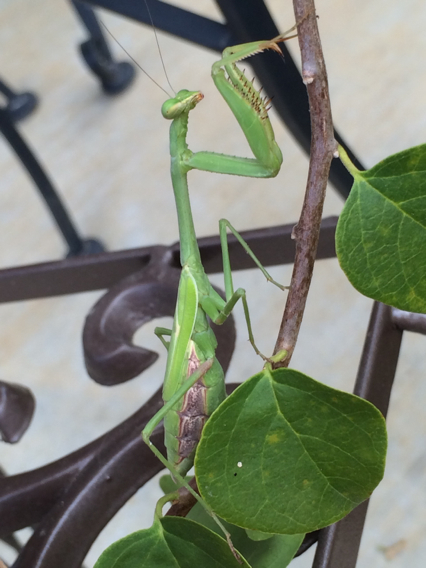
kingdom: Animalia
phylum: Arthropoda
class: Insecta
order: Mantodea
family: Mantidae
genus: Stagmomantis
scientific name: Stagmomantis carolina
